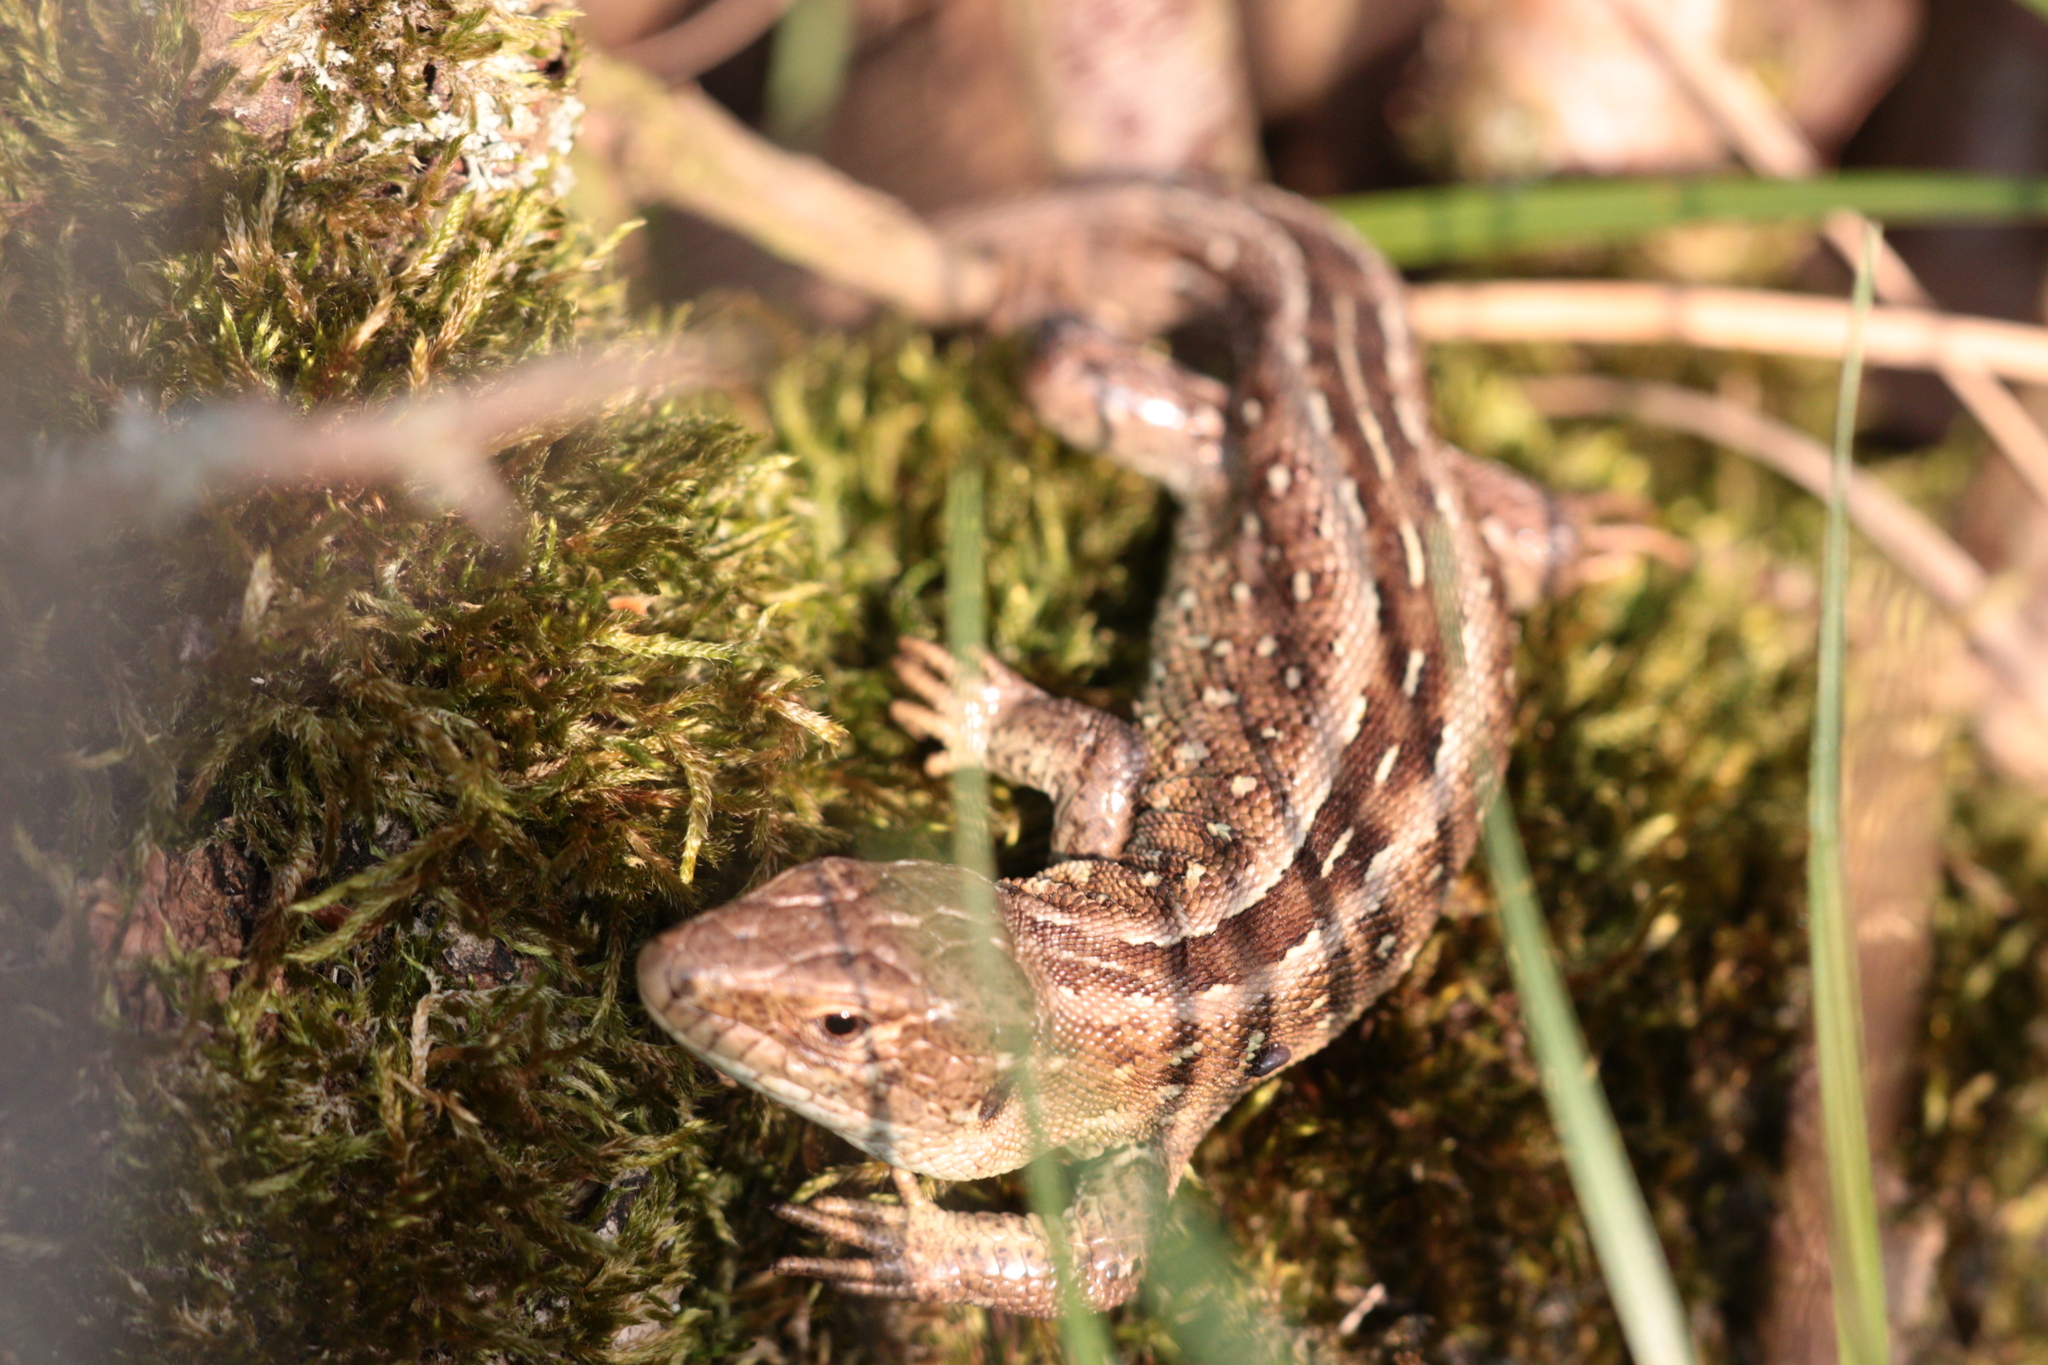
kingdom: Animalia
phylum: Chordata
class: Squamata
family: Lacertidae
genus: Lacerta
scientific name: Lacerta agilis
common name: Sand lizard
